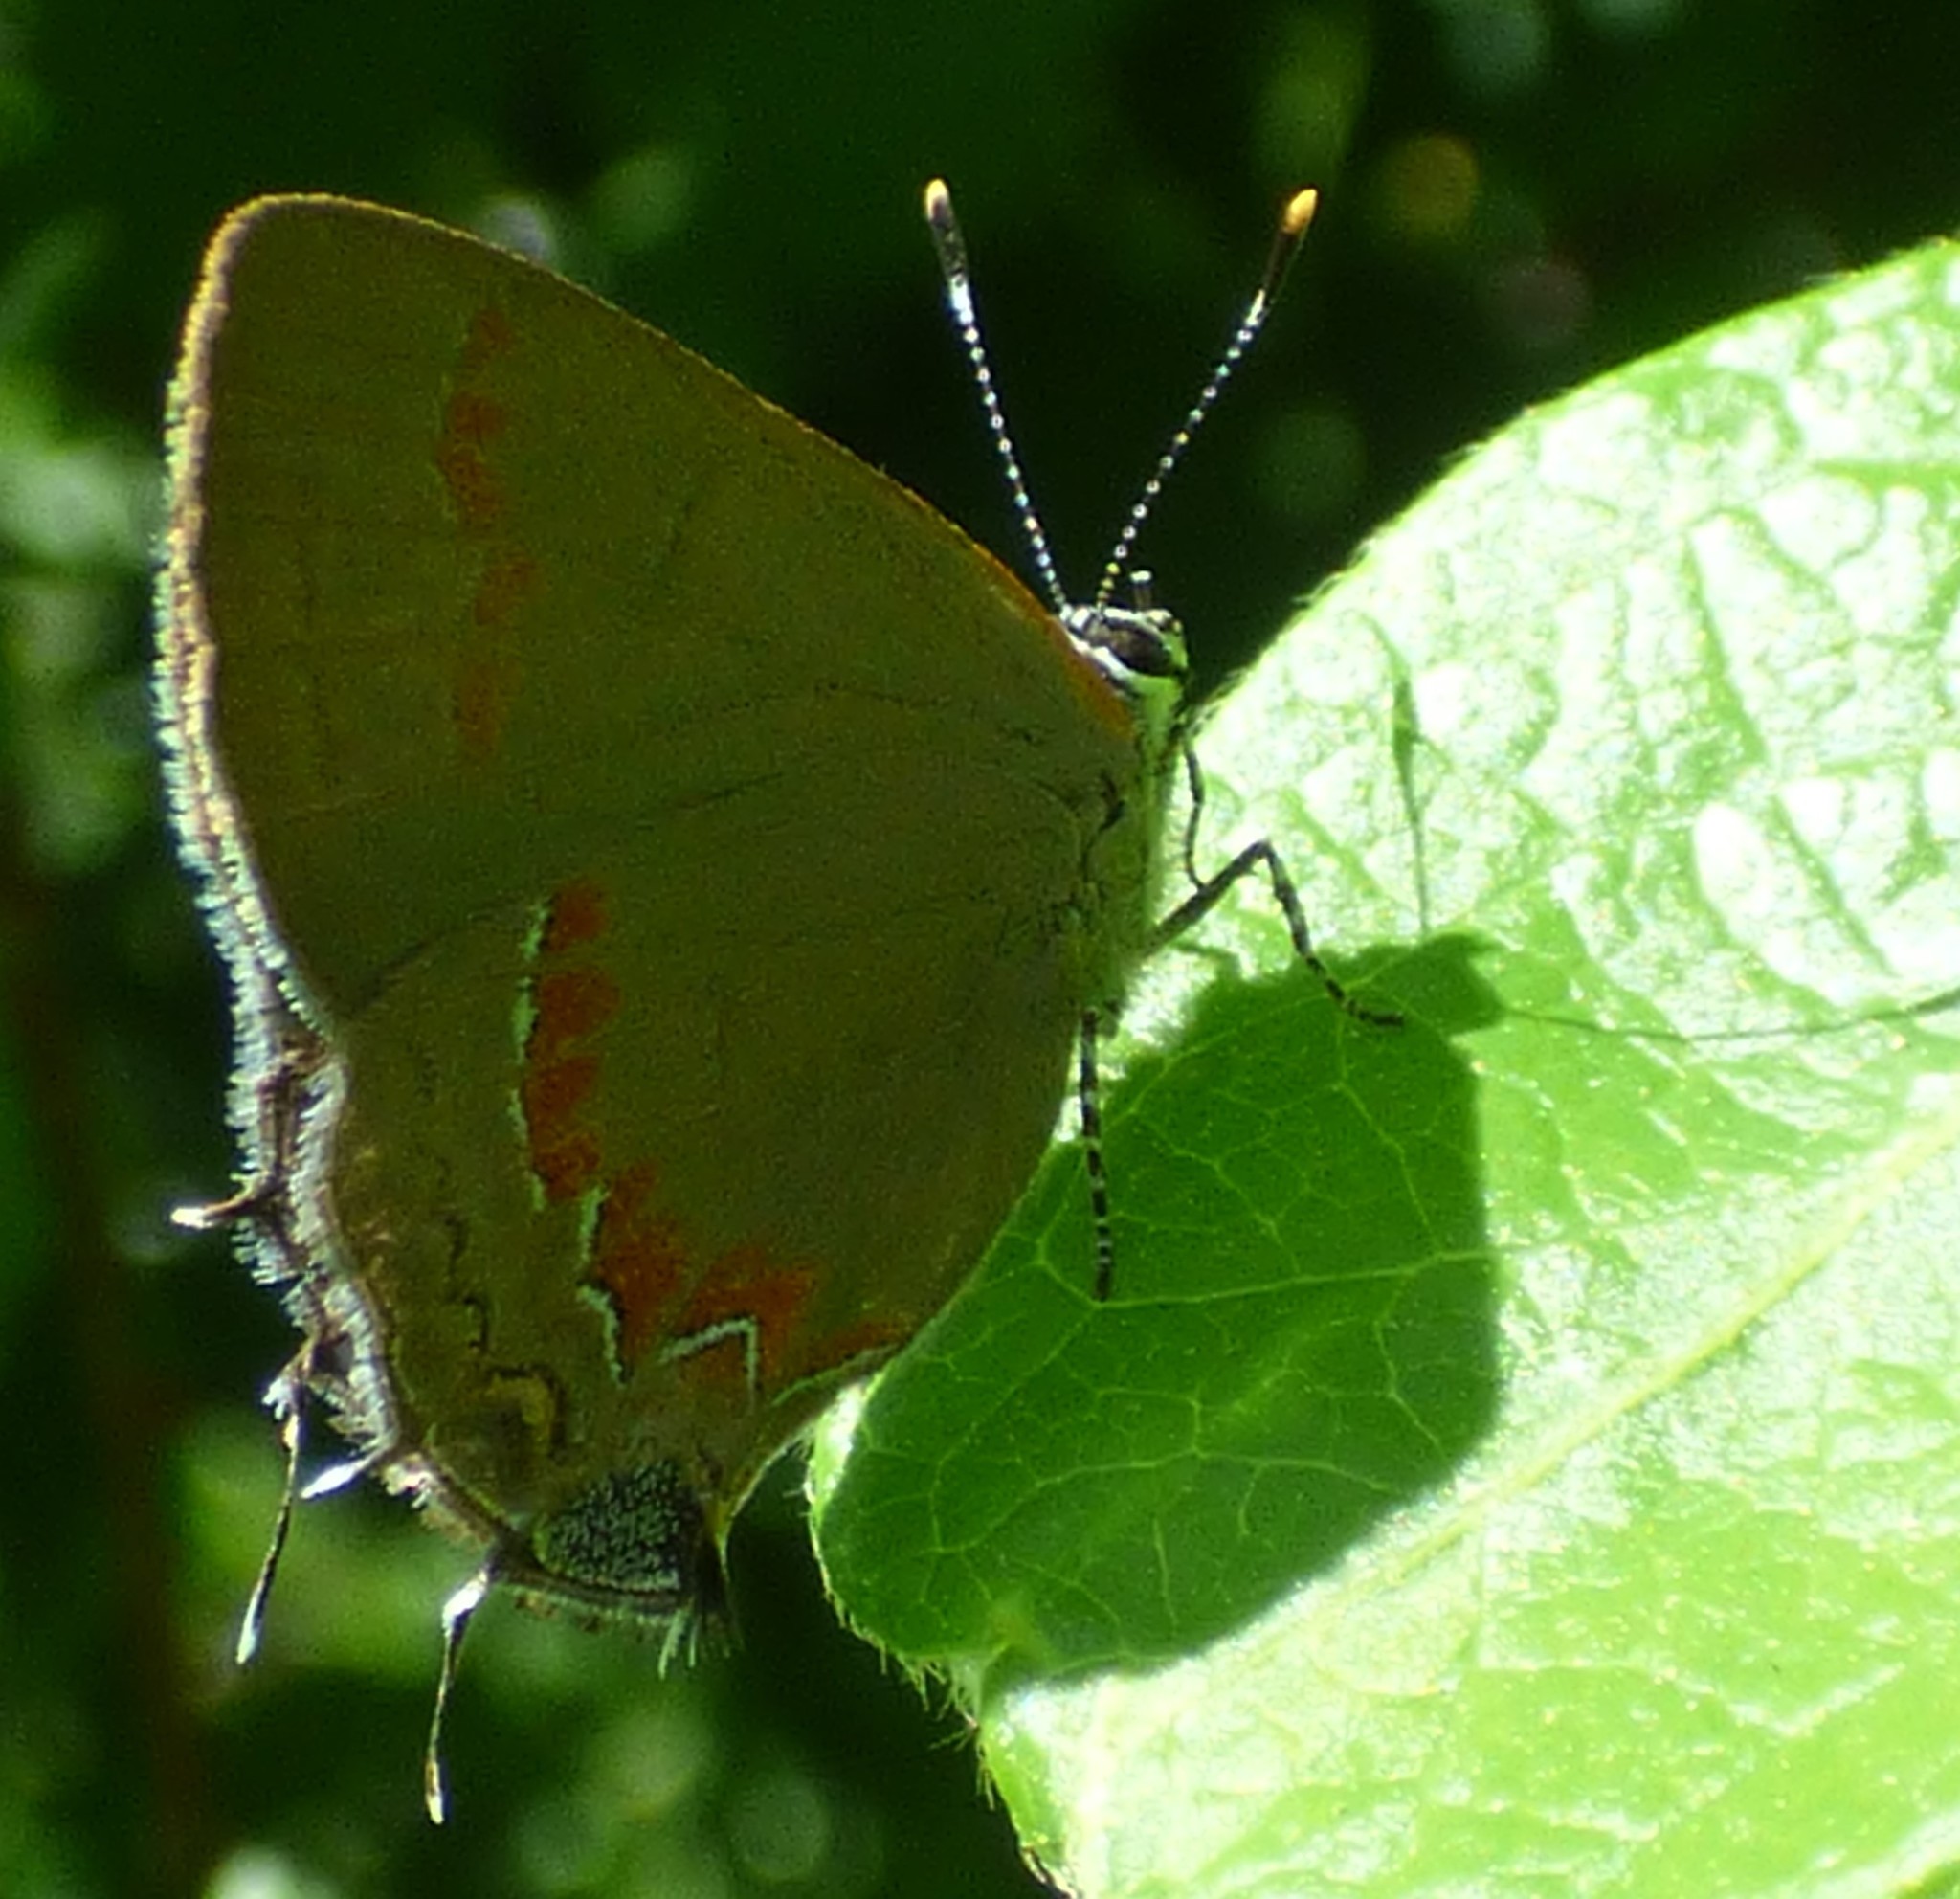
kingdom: Animalia
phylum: Arthropoda
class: Insecta
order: Lepidoptera
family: Lycaenidae
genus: Calycopis
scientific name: Calycopis cecrops
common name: Red-banded hairstreak
